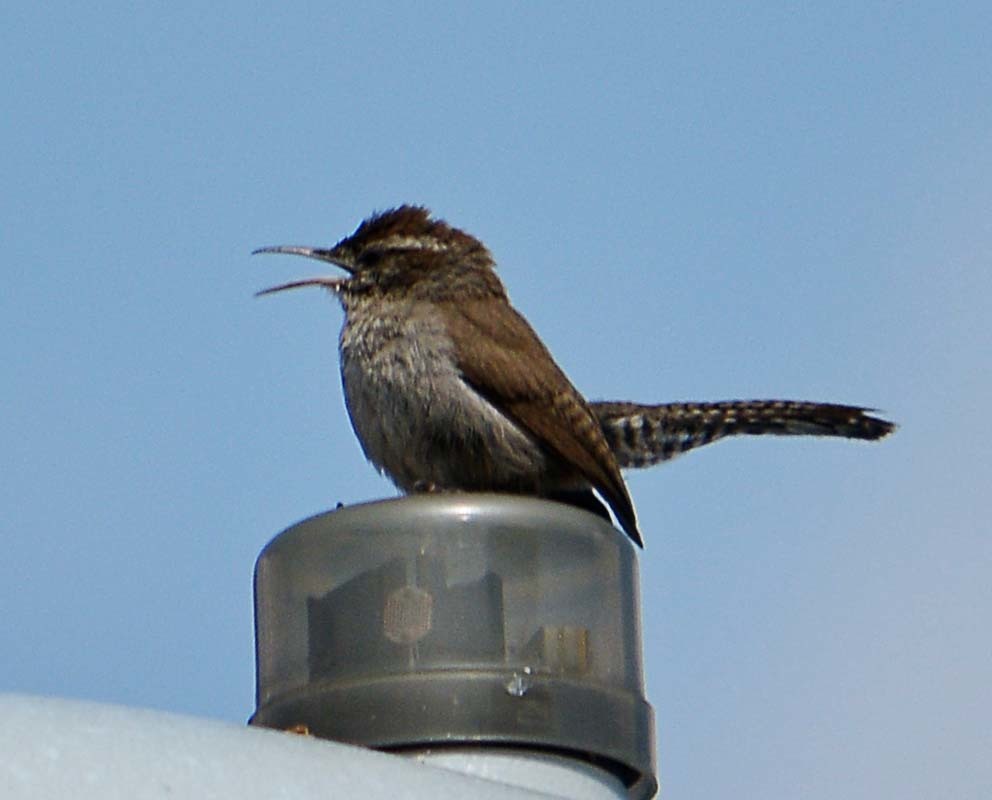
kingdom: Animalia
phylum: Chordata
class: Aves
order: Passeriformes
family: Troglodytidae
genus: Thryomanes
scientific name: Thryomanes bewickii
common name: Bewick's wren
